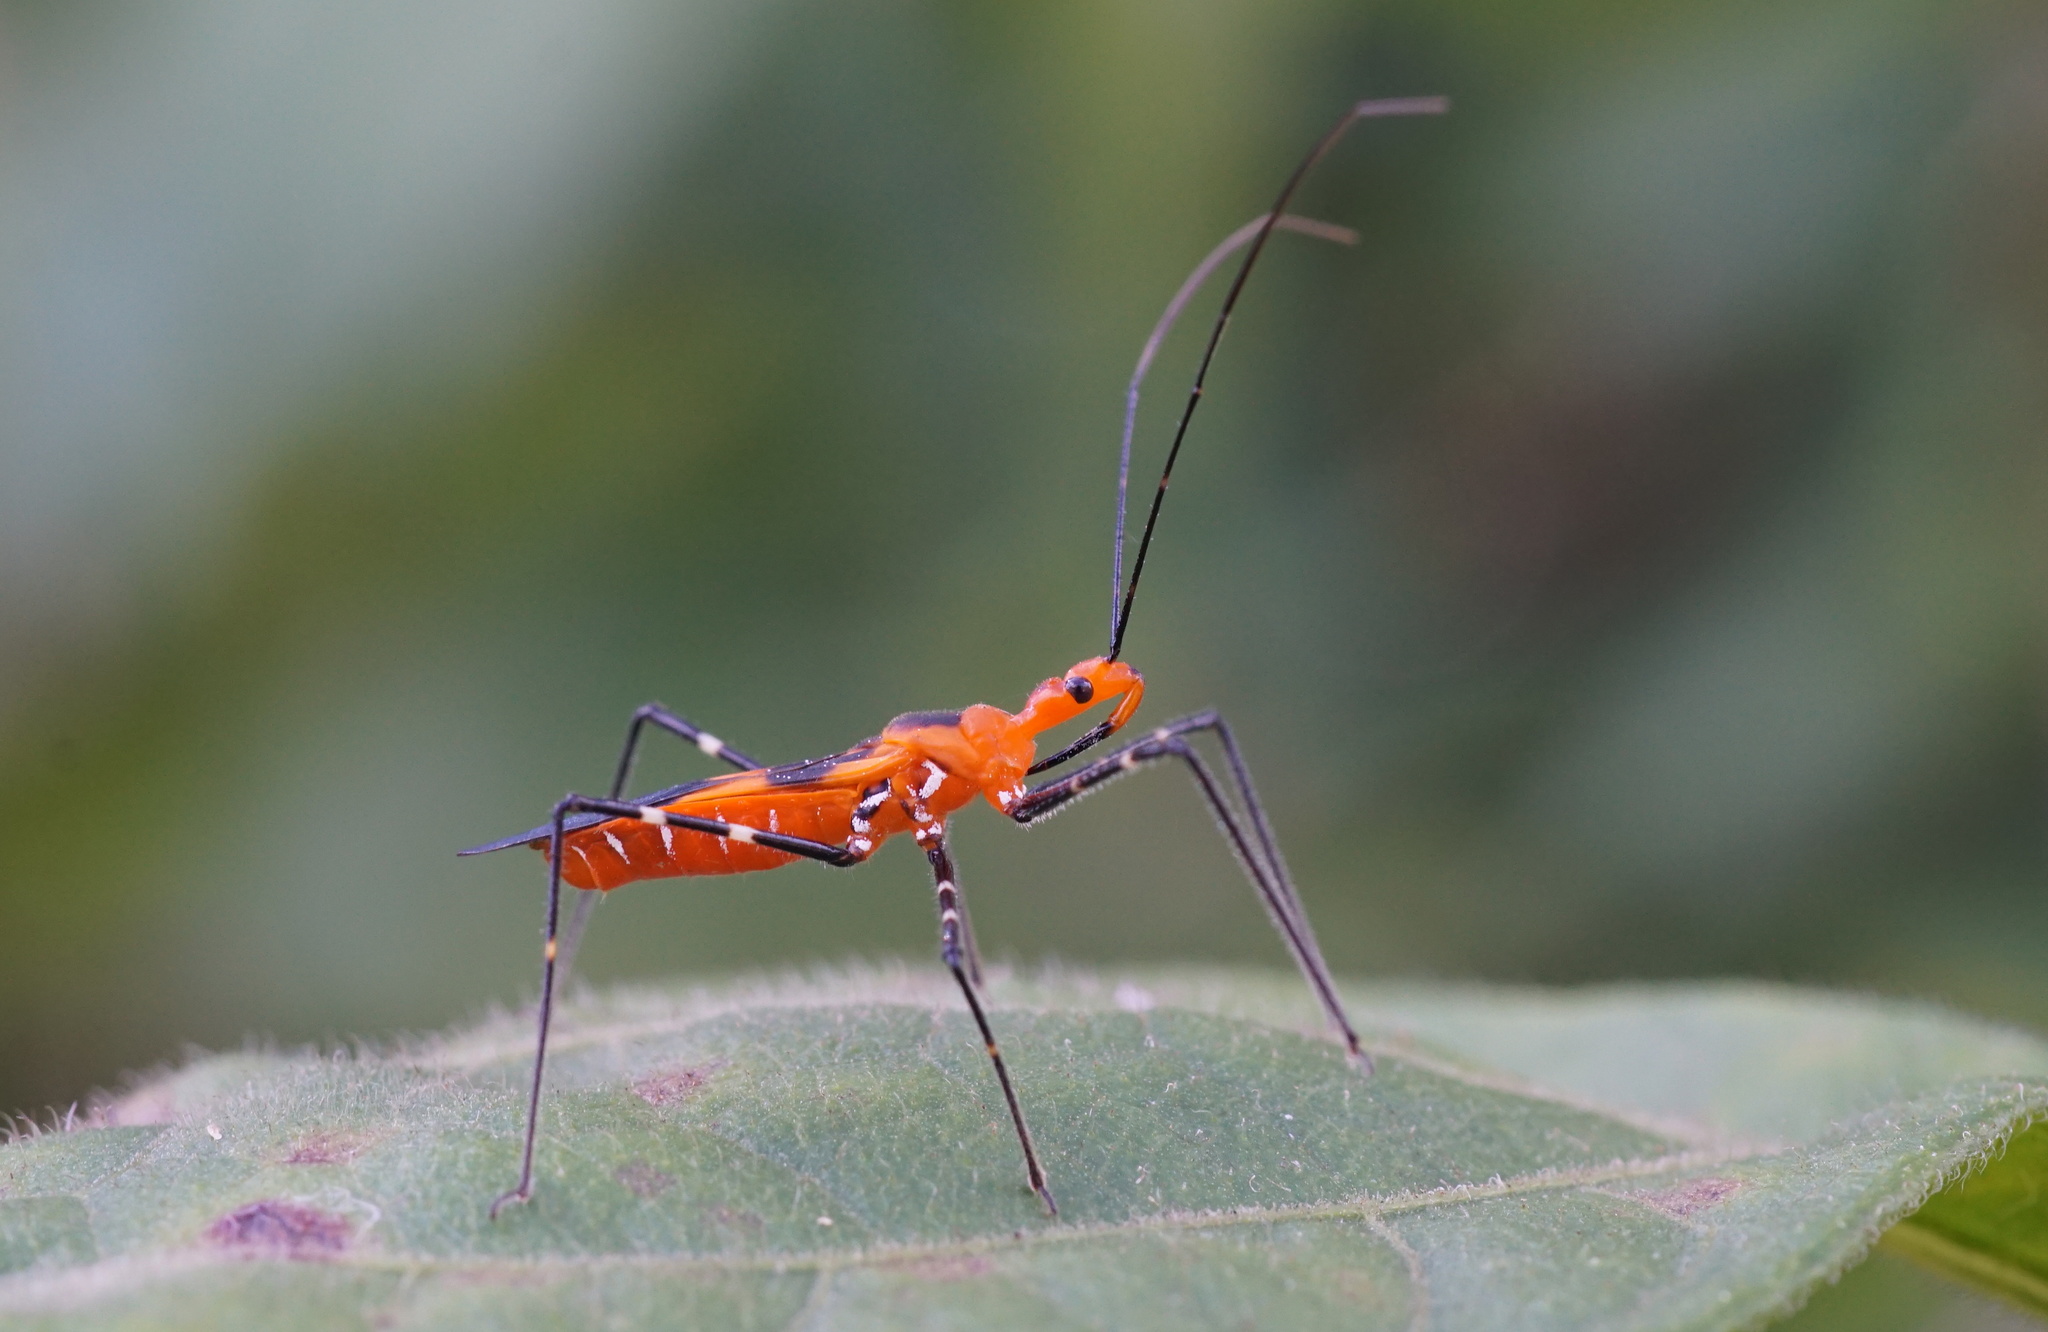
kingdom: Animalia
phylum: Arthropoda
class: Insecta
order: Hemiptera
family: Reduviidae
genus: Zelus
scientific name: Zelus longipes
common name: Milkweed assassin bug
